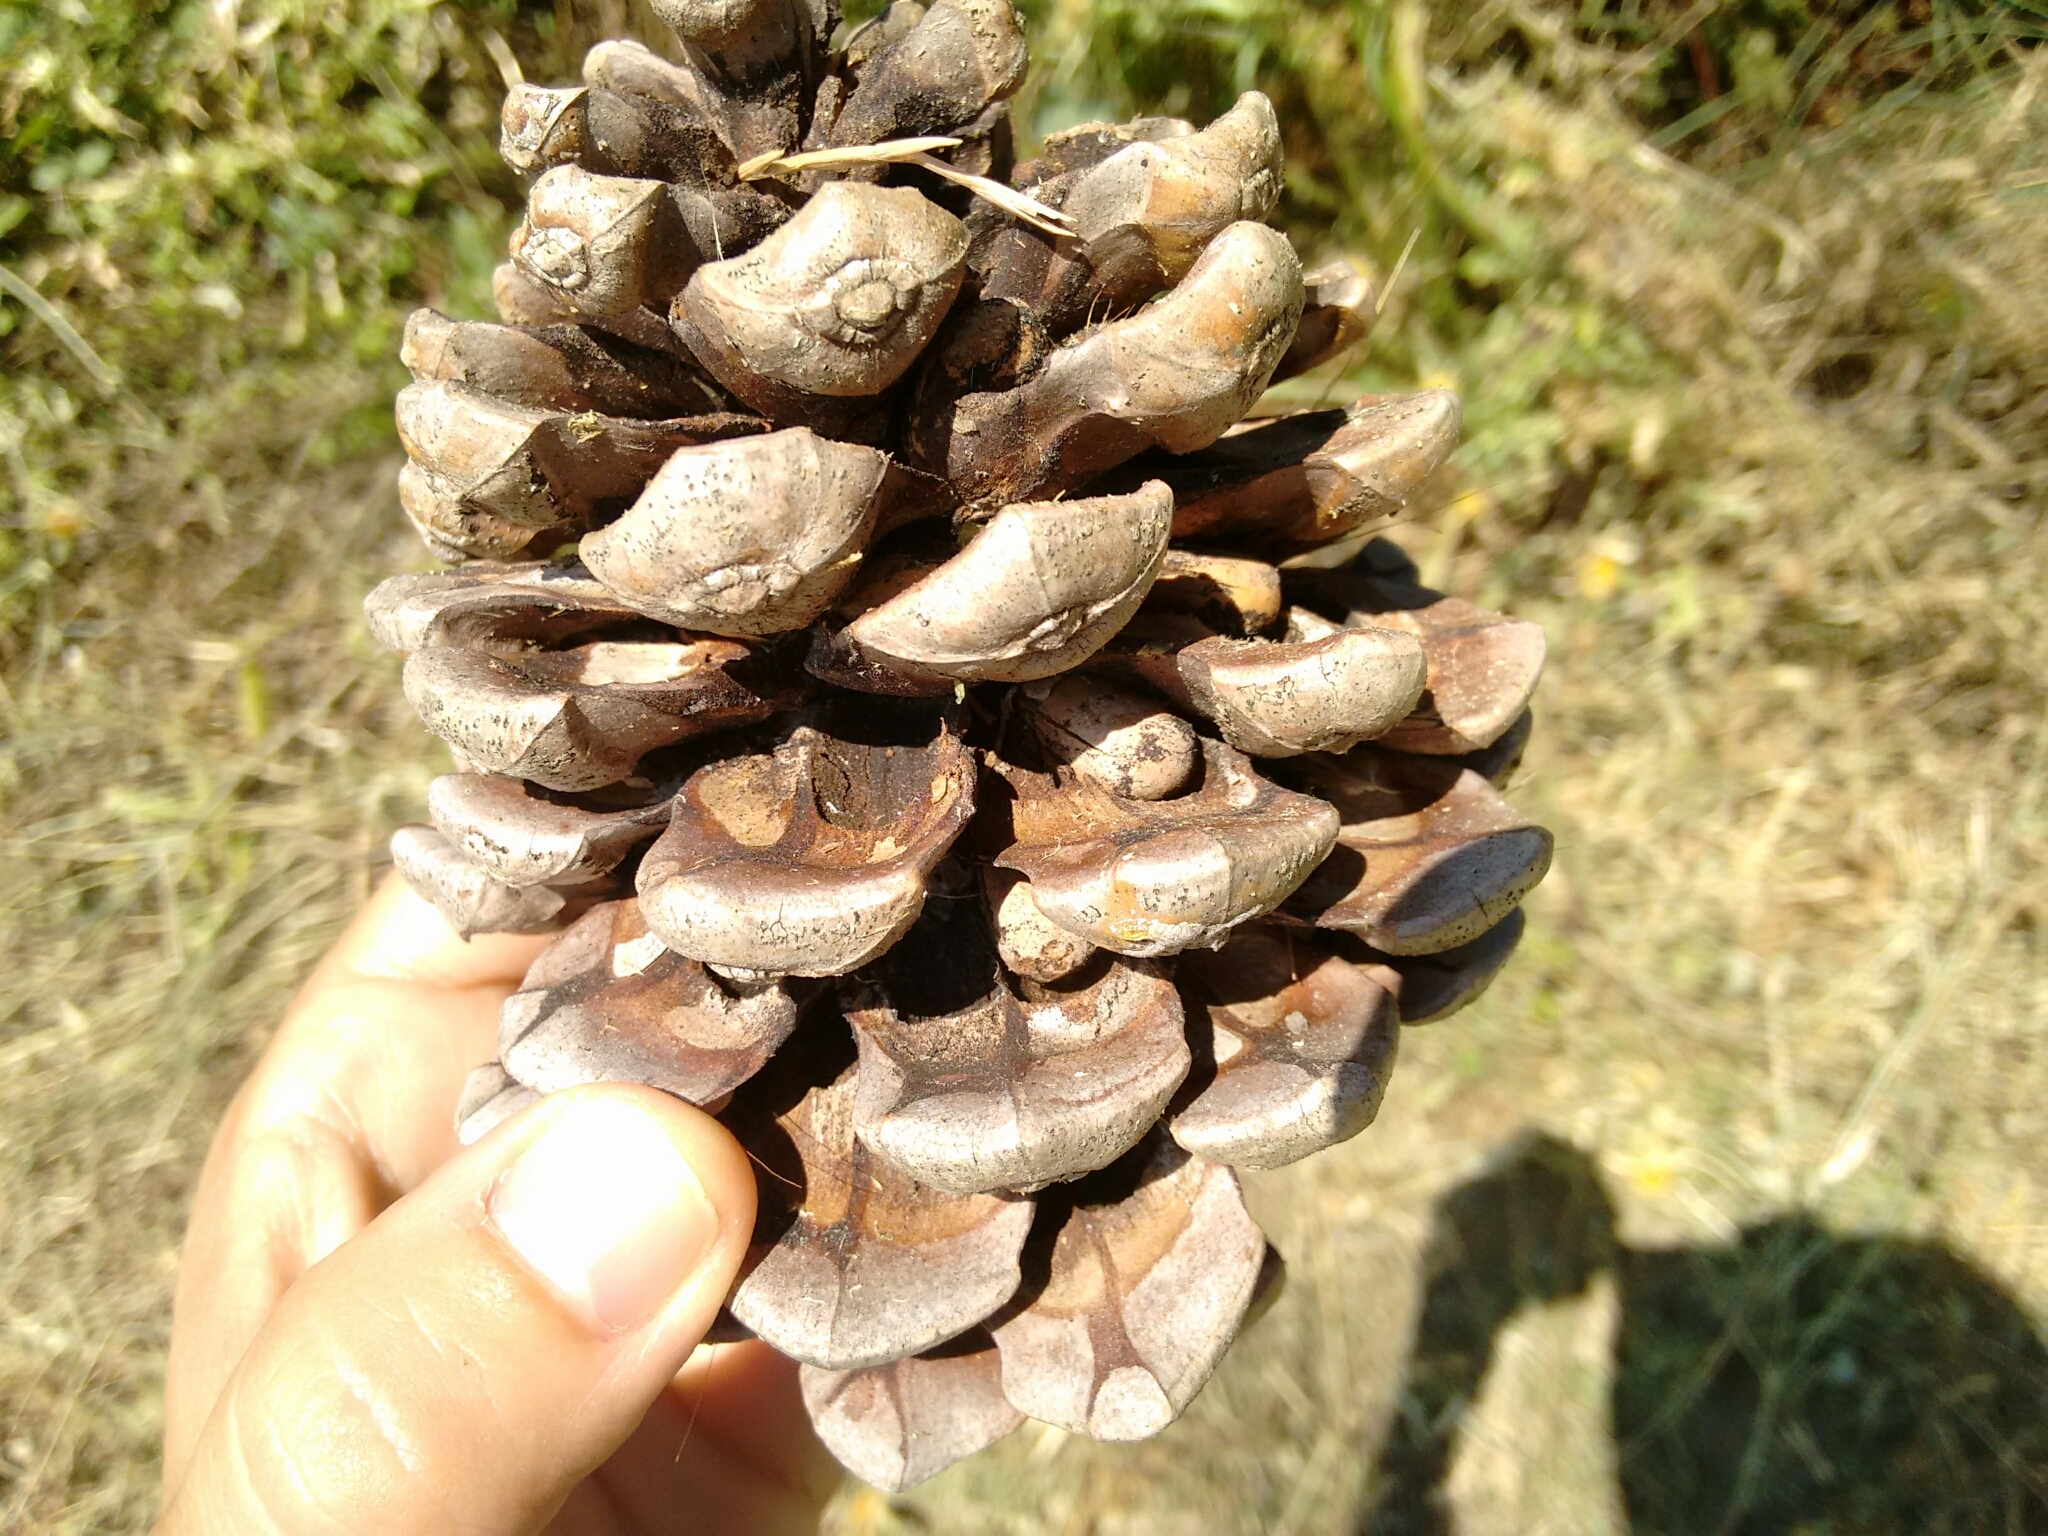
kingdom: Plantae
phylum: Tracheophyta
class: Pinopsida
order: Pinales
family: Pinaceae
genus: Pinus
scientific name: Pinus pinea
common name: Italian stone pine
